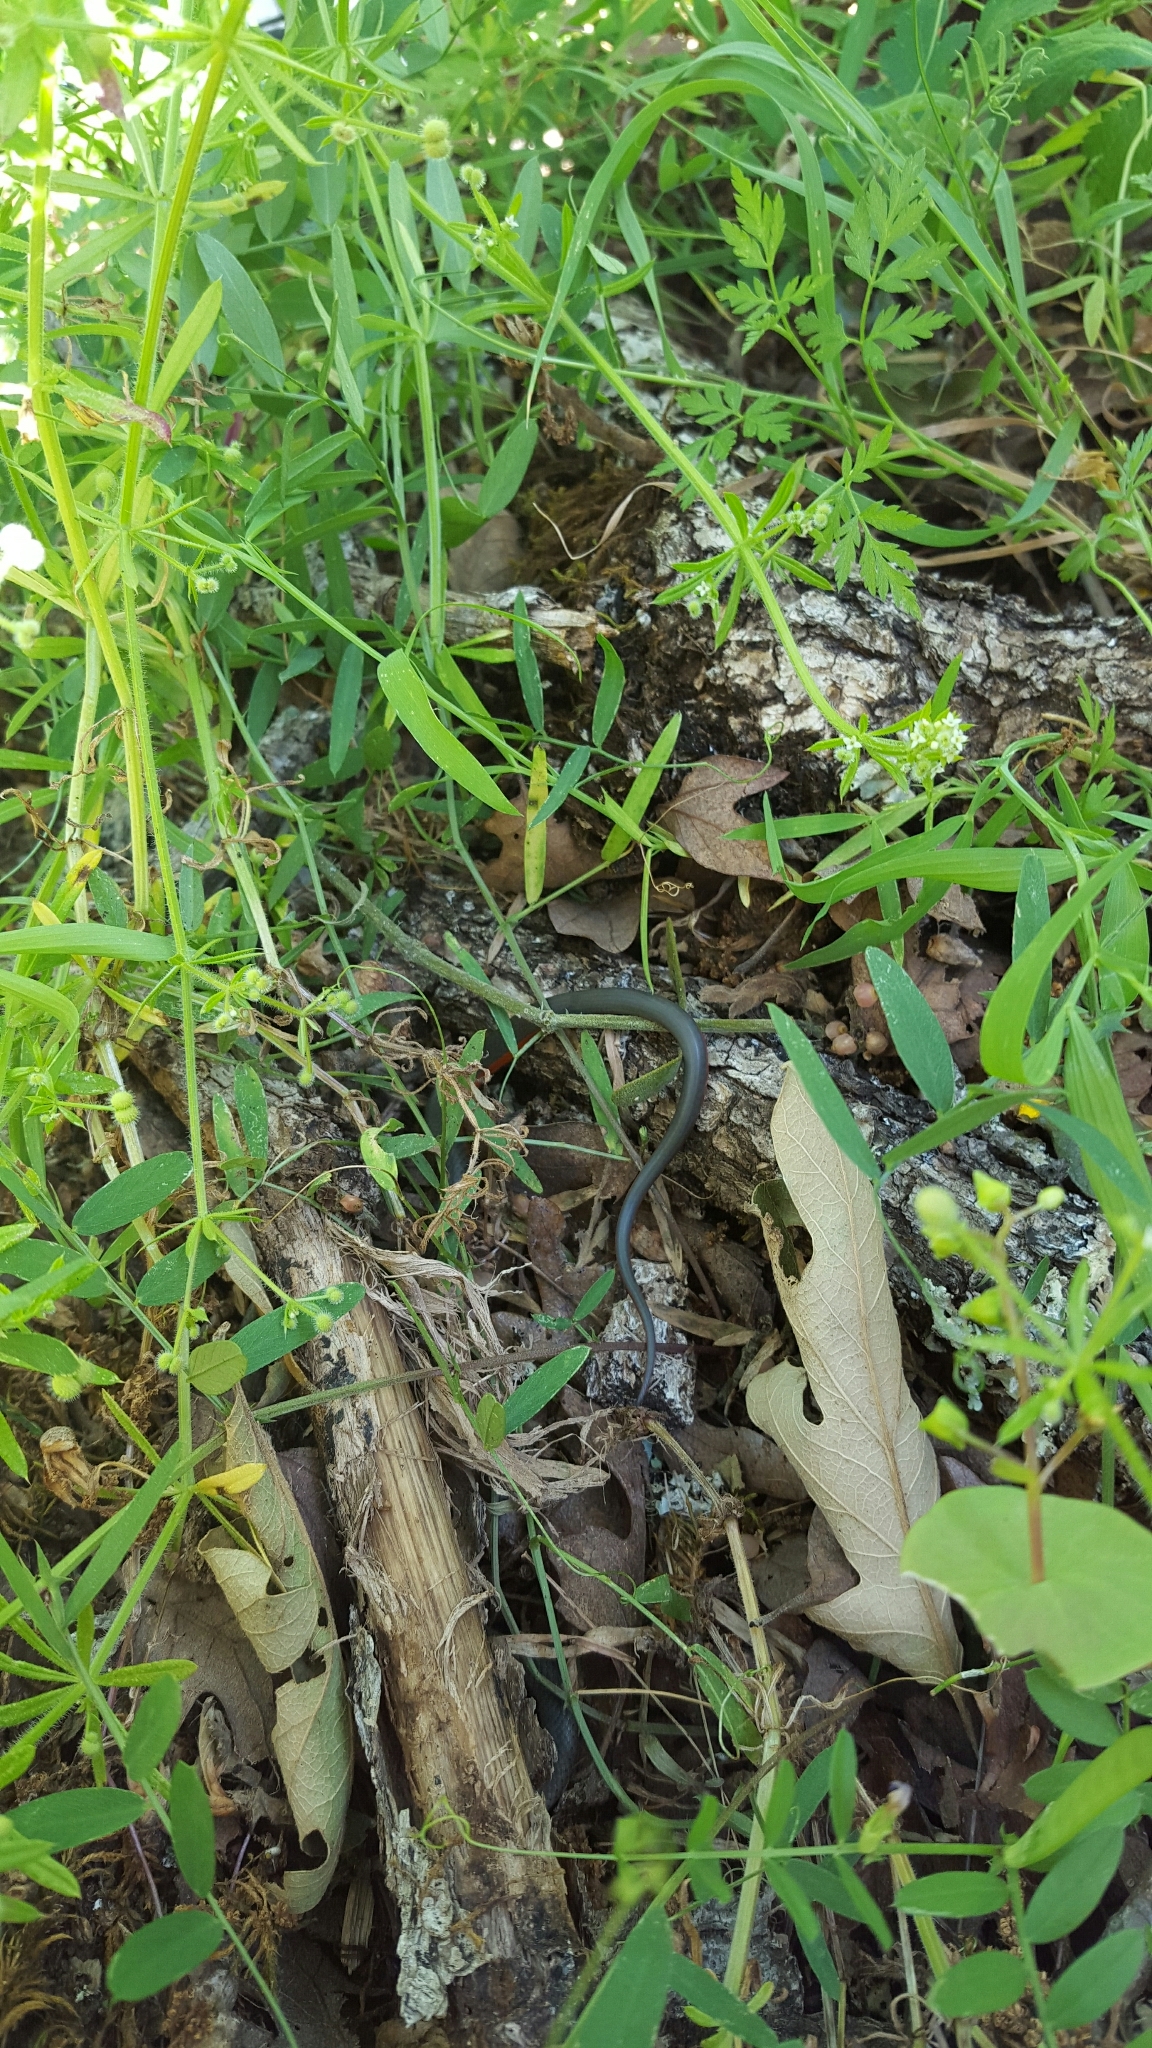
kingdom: Animalia
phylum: Chordata
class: Squamata
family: Colubridae
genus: Diadophis
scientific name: Diadophis punctatus
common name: Ringneck snake
